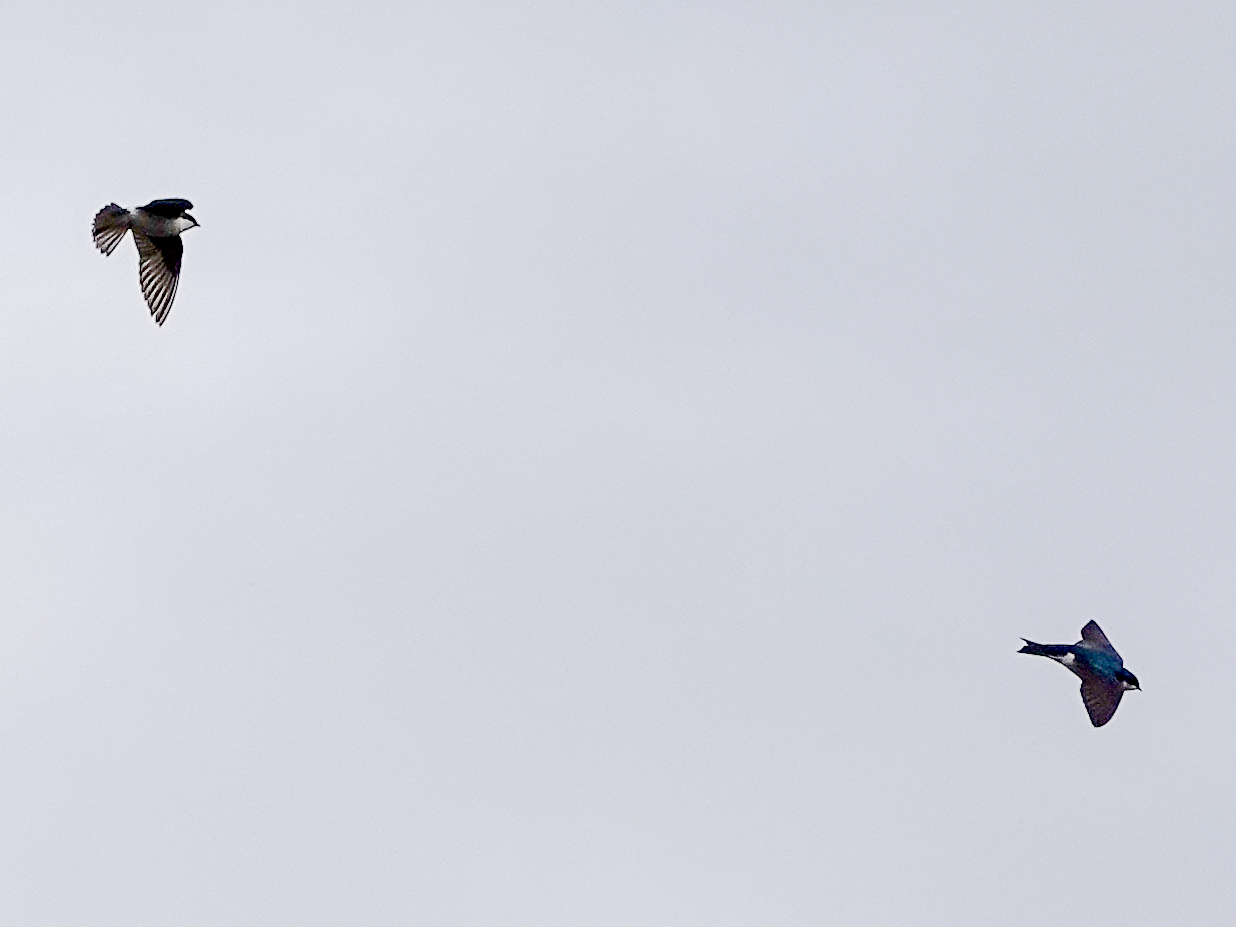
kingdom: Animalia
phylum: Chordata
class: Aves
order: Passeriformes
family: Hirundinidae
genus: Tachycineta
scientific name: Tachycineta bicolor
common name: Tree swallow
